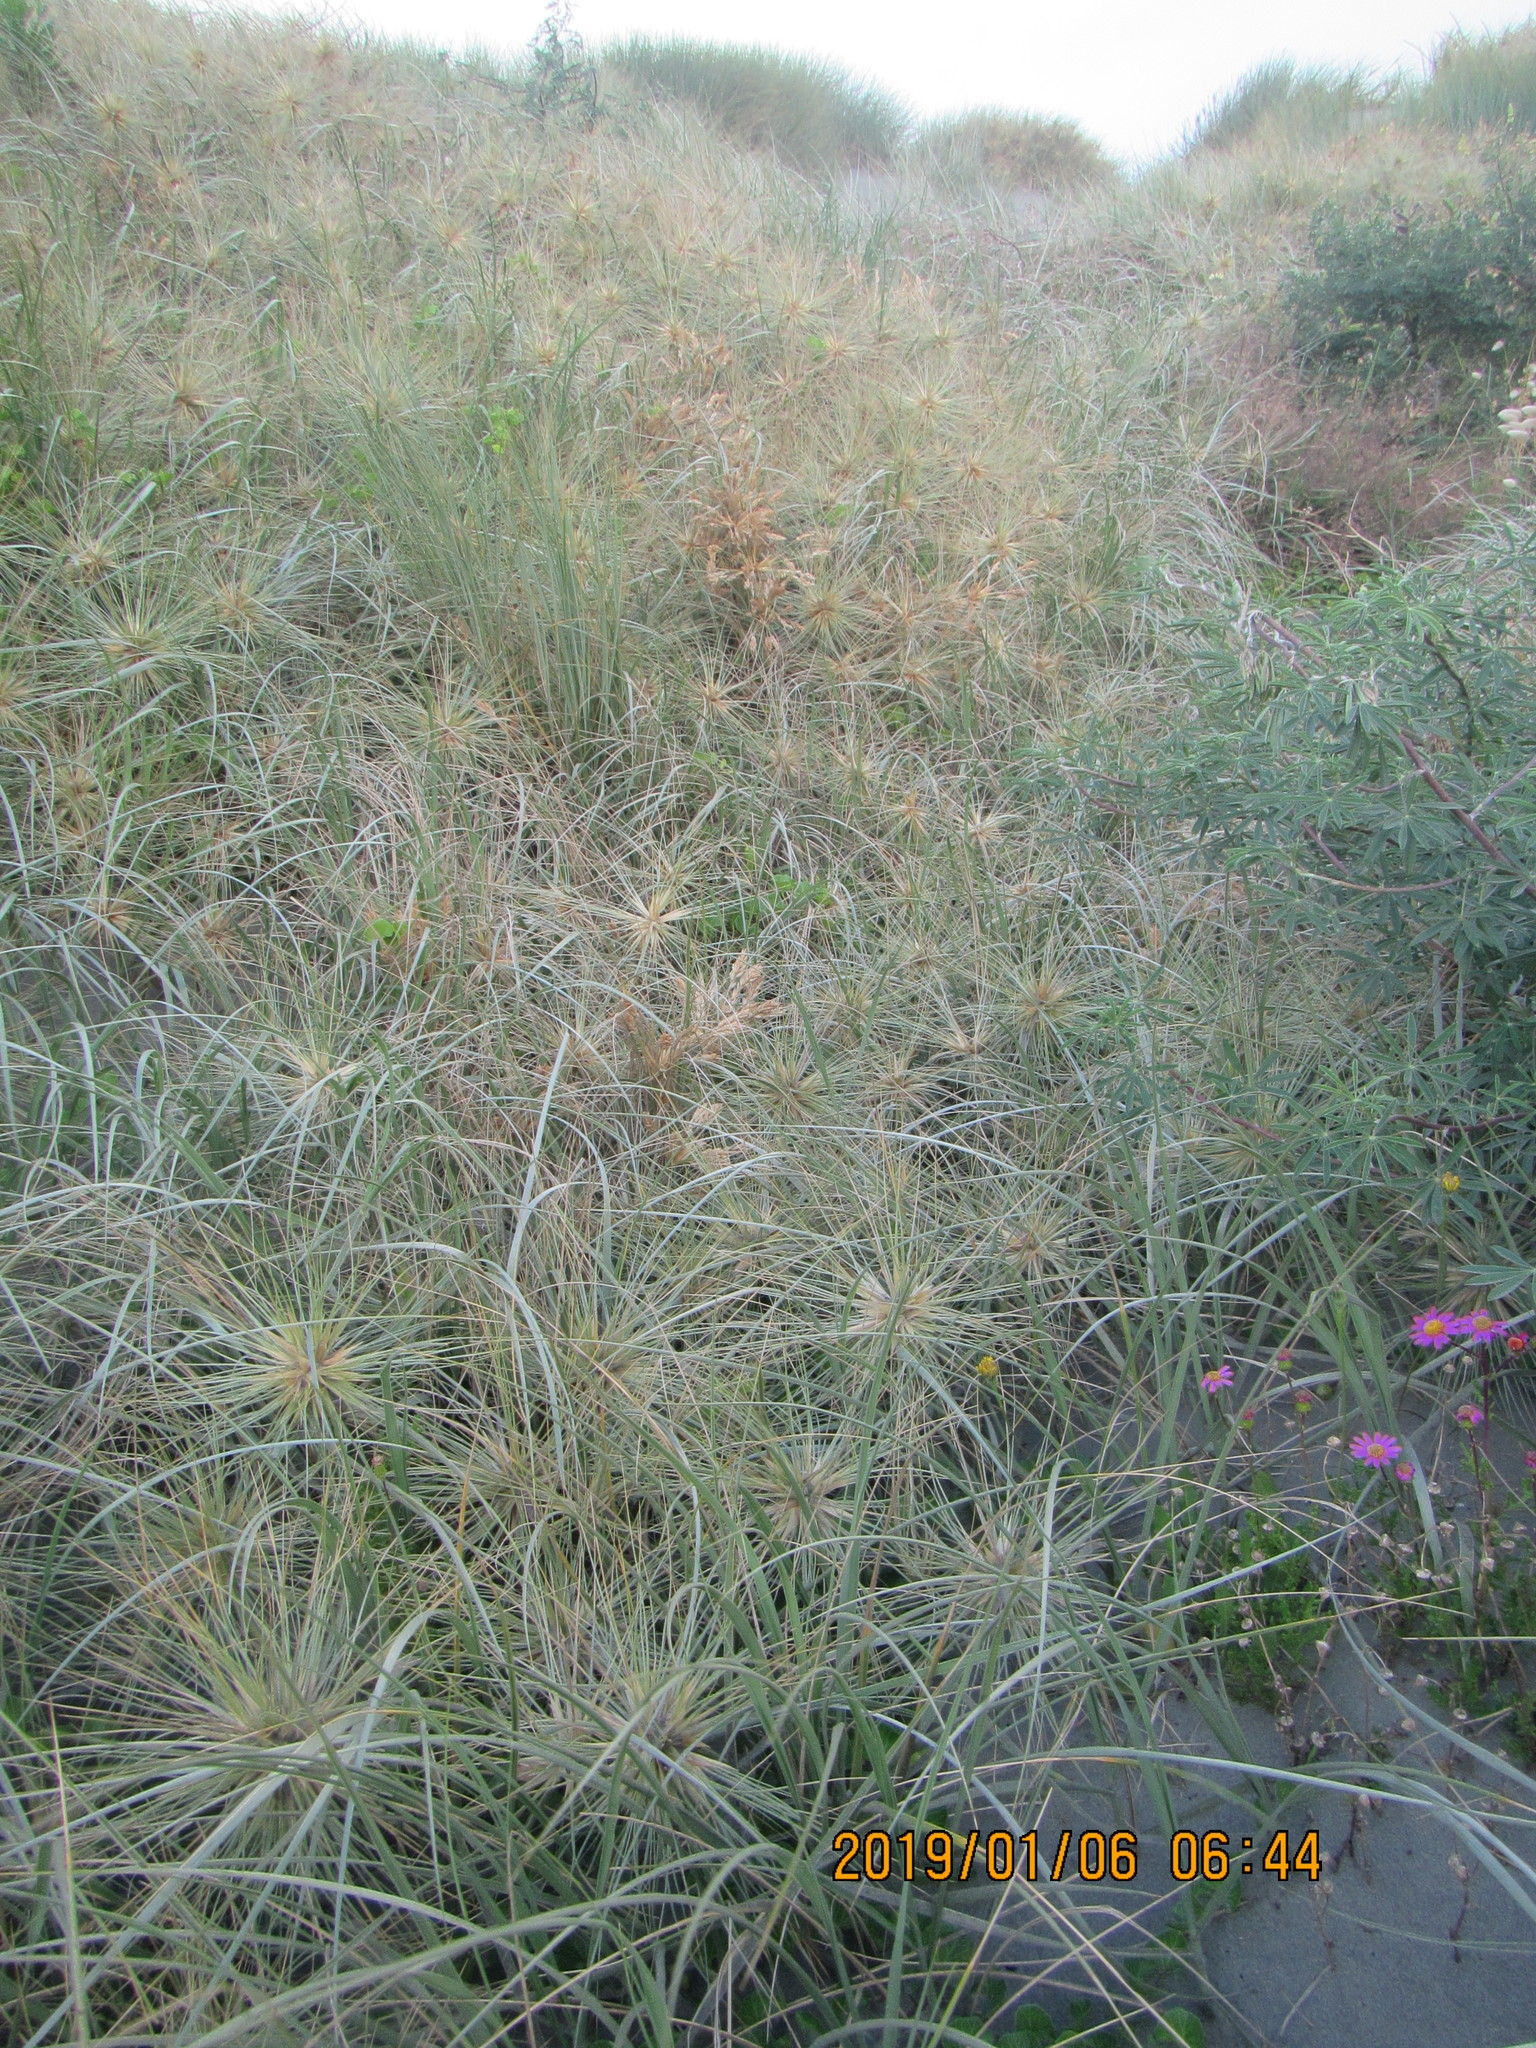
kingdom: Plantae
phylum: Tracheophyta
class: Liliopsida
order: Poales
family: Poaceae
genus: Spinifex
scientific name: Spinifex sericeus
